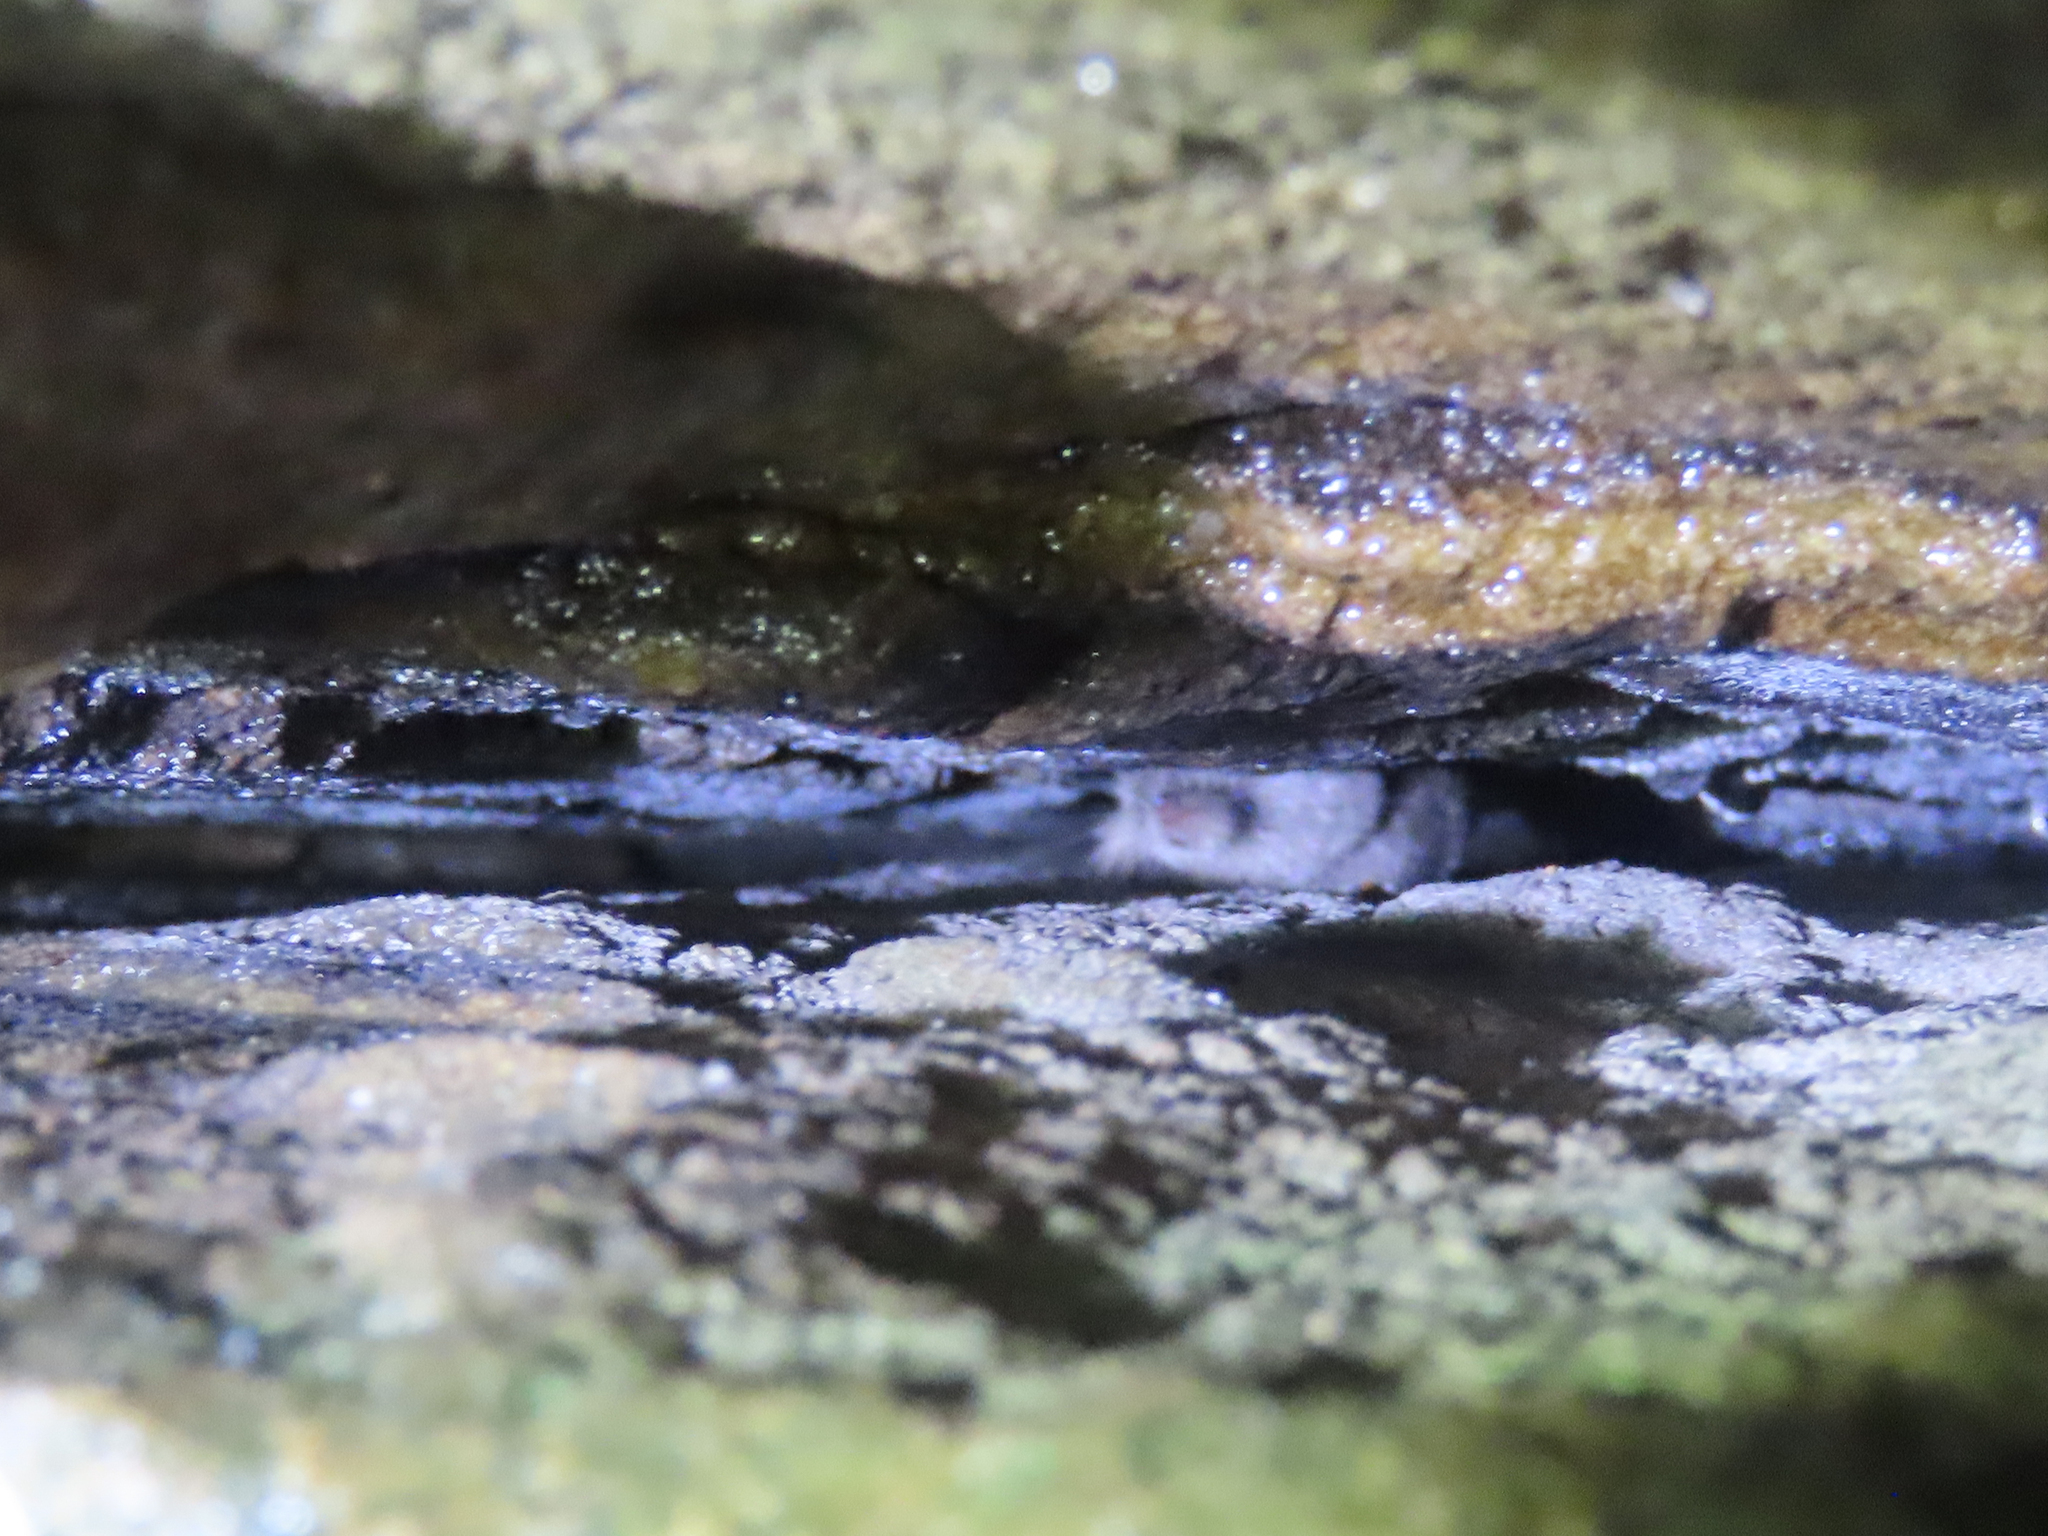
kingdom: Animalia
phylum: Chordata
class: Mammalia
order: Soricomorpha
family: Soricidae
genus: Sorex
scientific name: Sorex fumeus
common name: Smoky shrew
